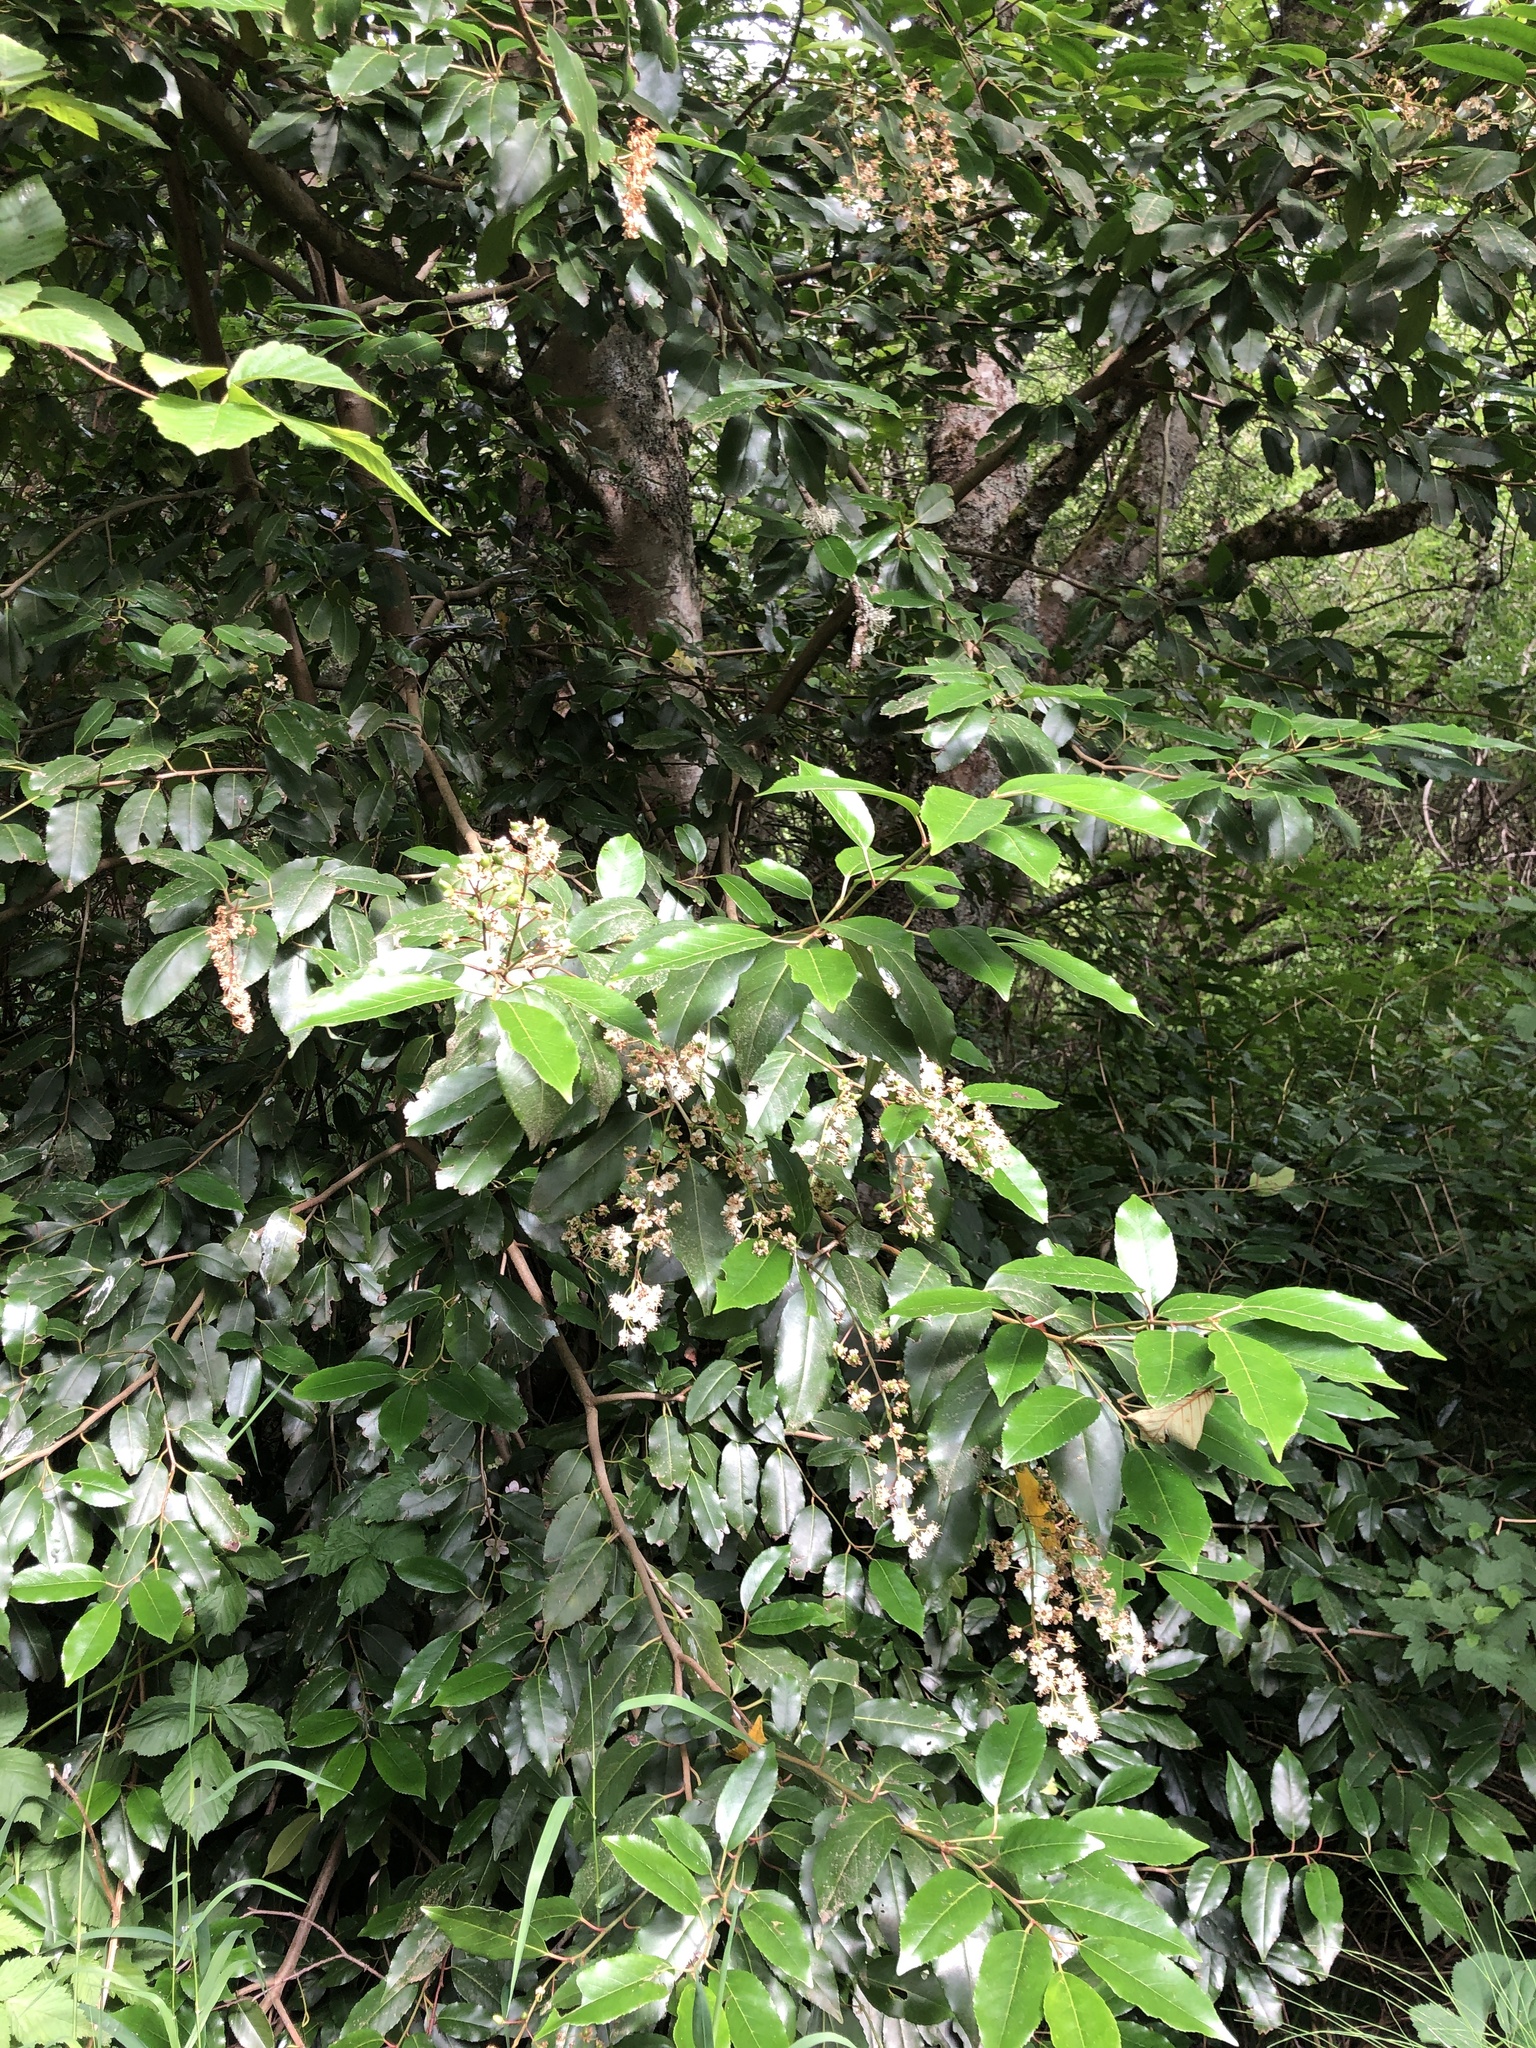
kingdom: Plantae
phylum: Tracheophyta
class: Magnoliopsida
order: Rosales
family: Rosaceae
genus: Prunus
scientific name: Prunus lusitanica
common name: Portugal laurel
